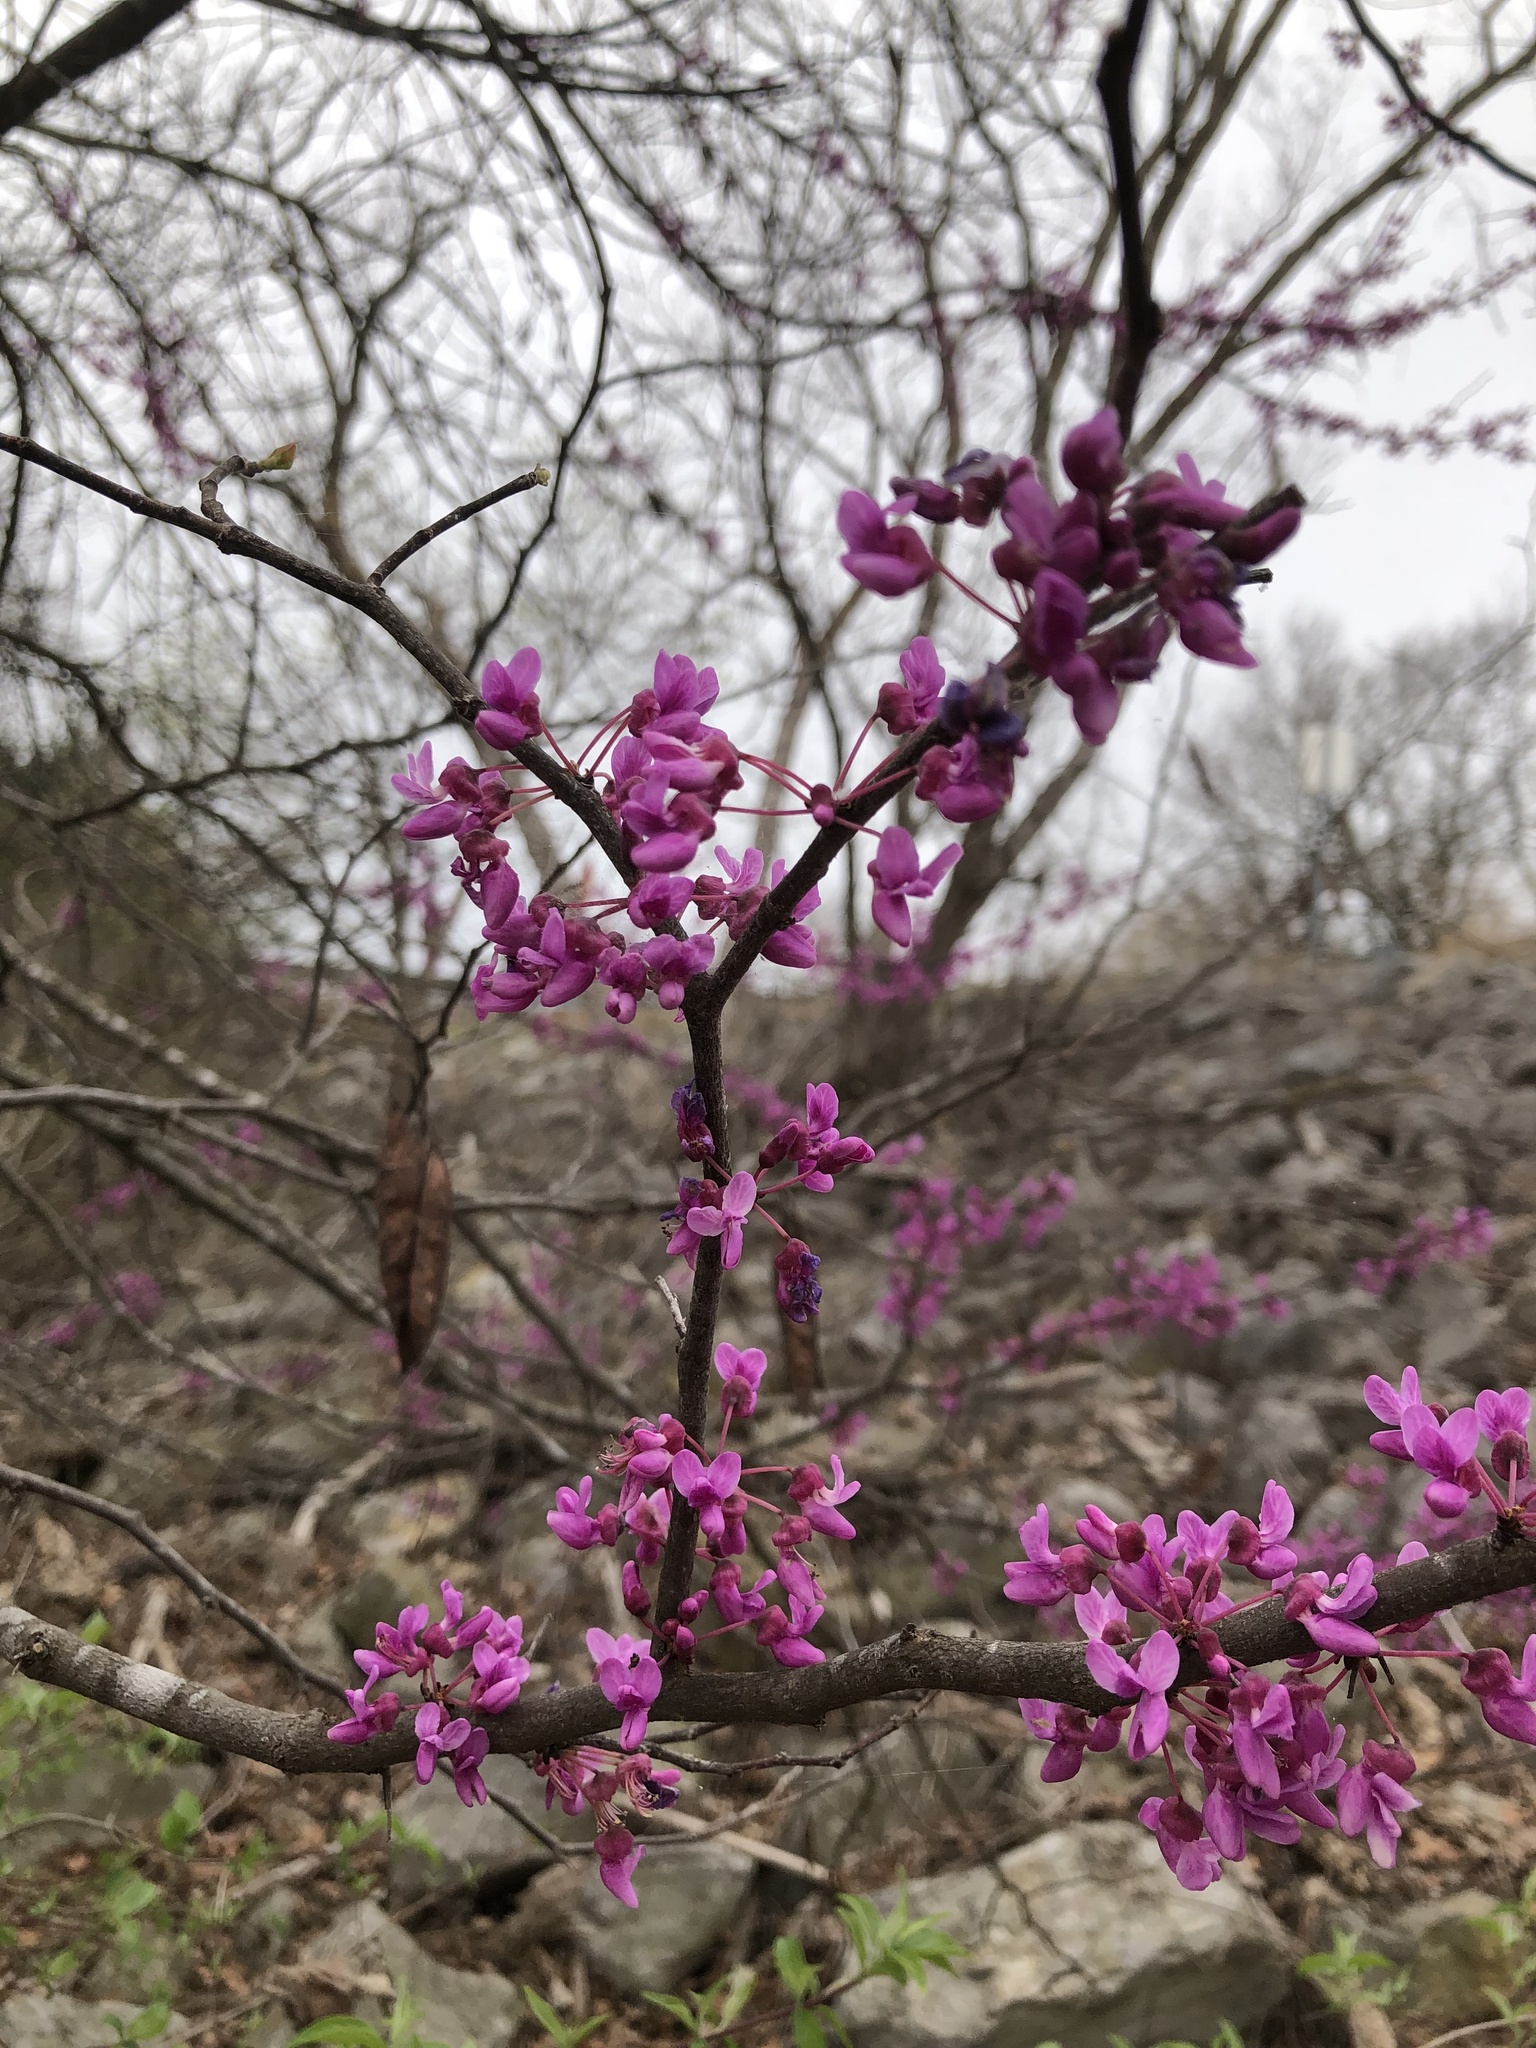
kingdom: Plantae
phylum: Tracheophyta
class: Magnoliopsida
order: Fabales
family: Fabaceae
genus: Cercis
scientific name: Cercis canadensis
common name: Eastern redbud
